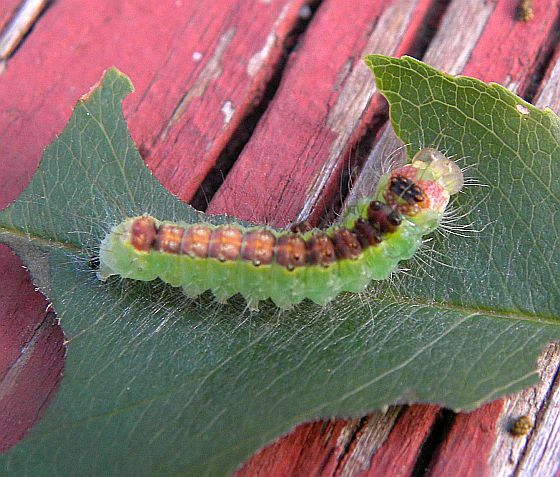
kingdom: Animalia
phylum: Arthropoda
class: Insecta
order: Lepidoptera
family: Noctuidae
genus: Acronicta
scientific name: Acronicta radcliffei
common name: Radcliffe's dagger
